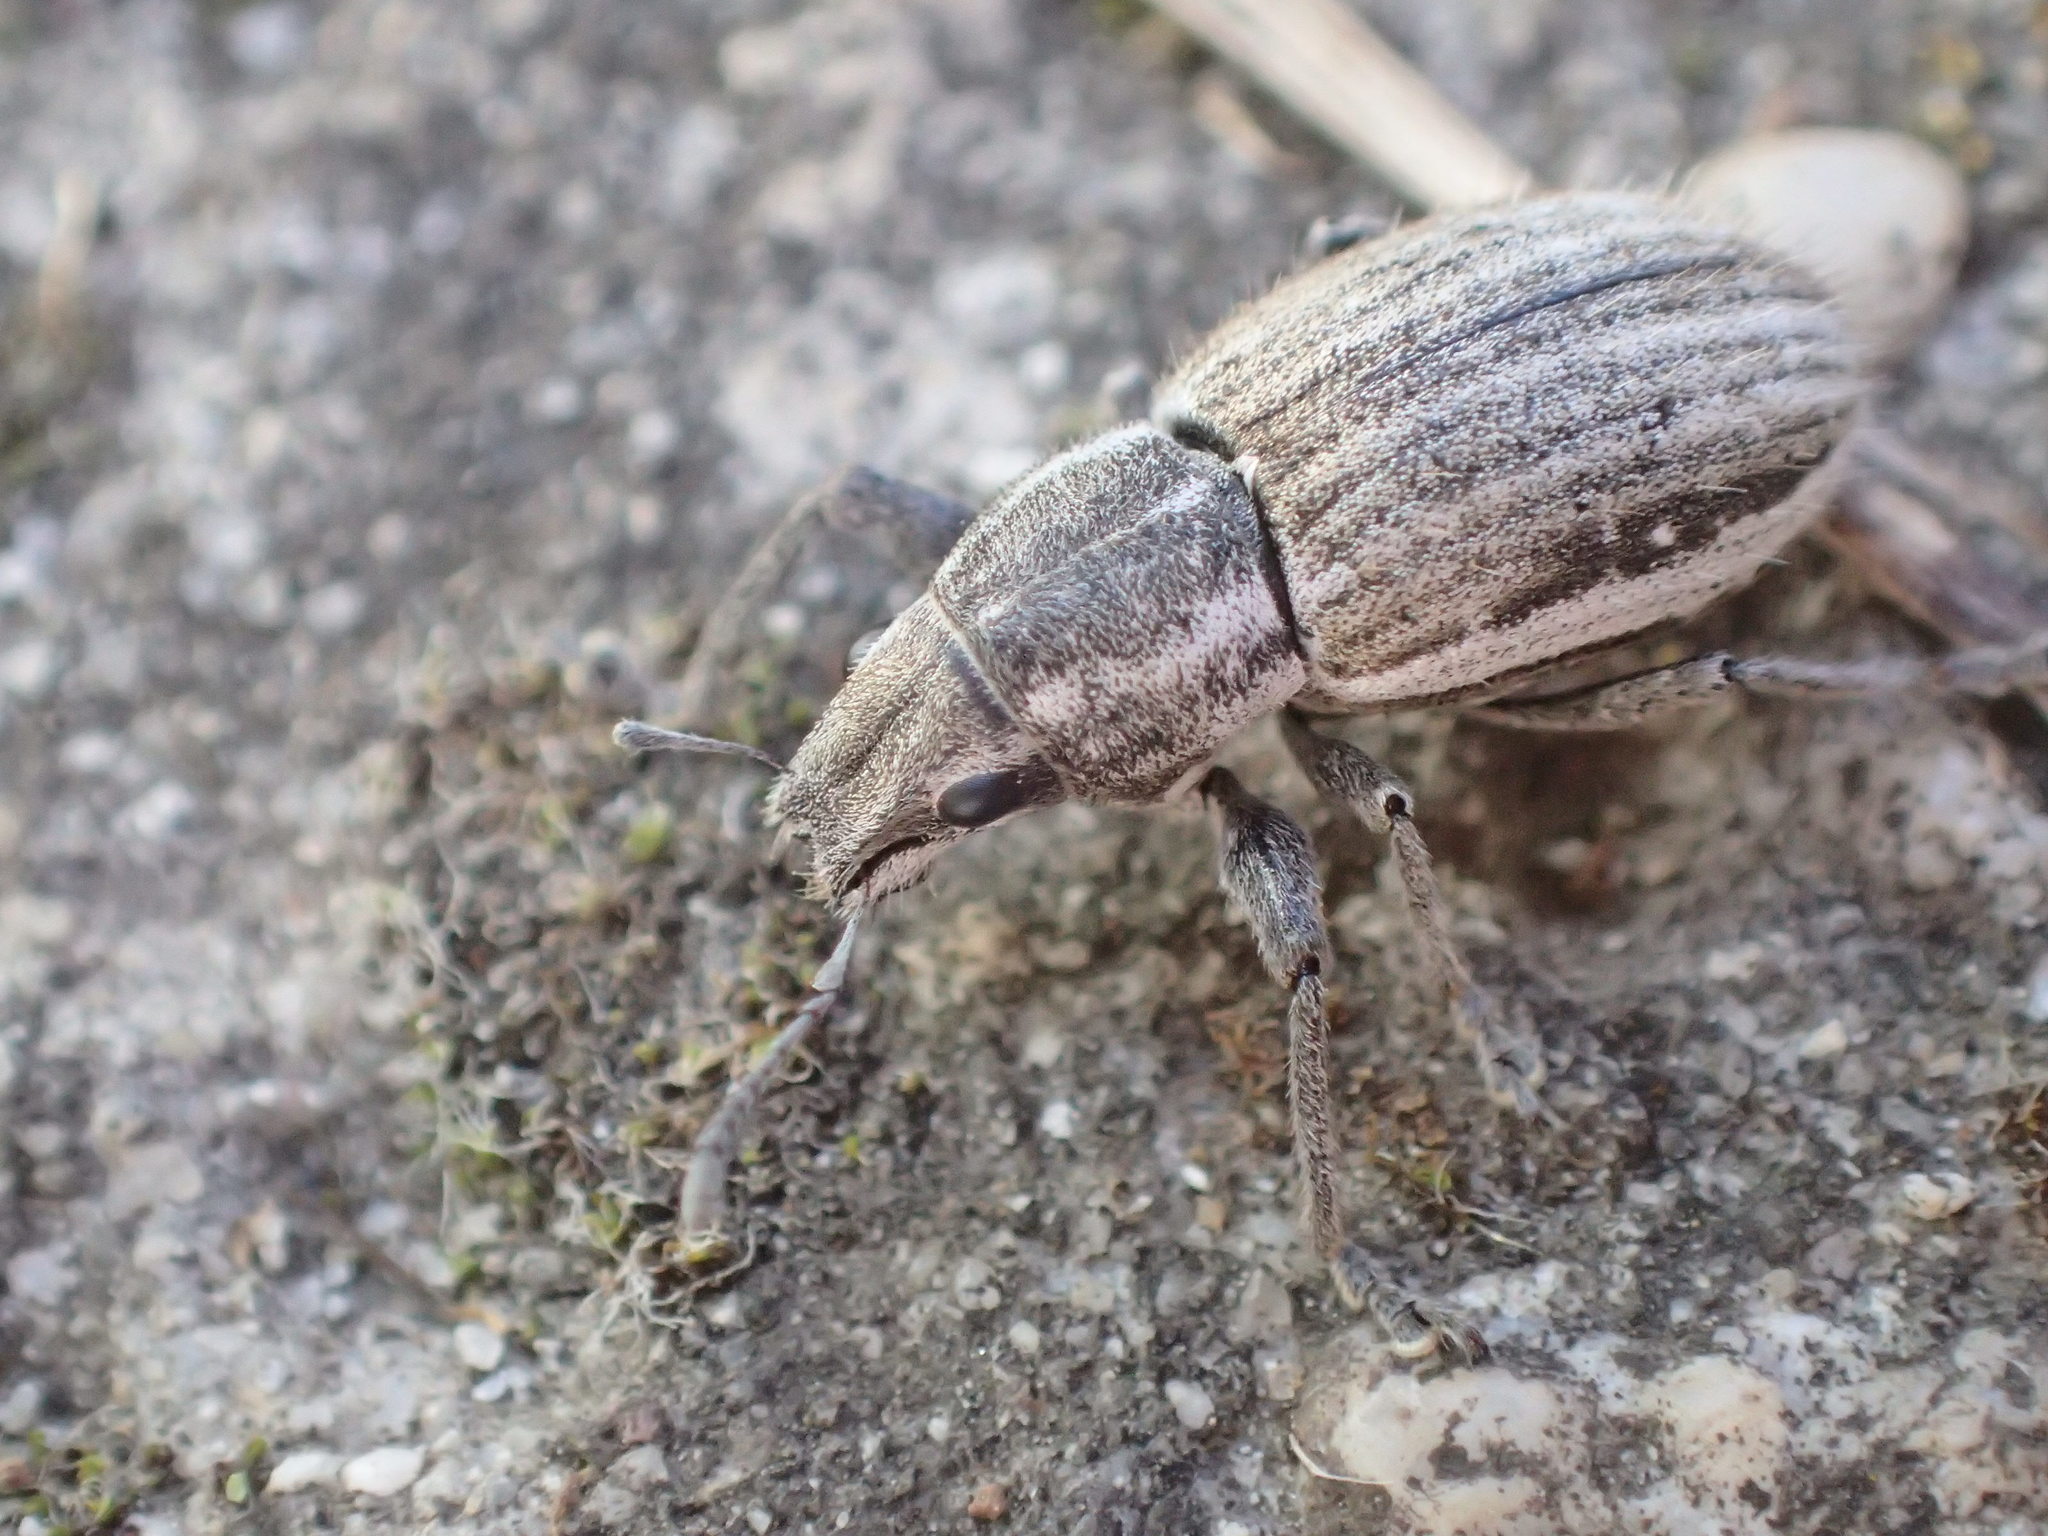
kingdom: Animalia
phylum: Arthropoda
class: Insecta
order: Coleoptera
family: Curculionidae
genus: Naupactus
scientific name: Naupactus leucoloma
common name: Whitefringed beetle
